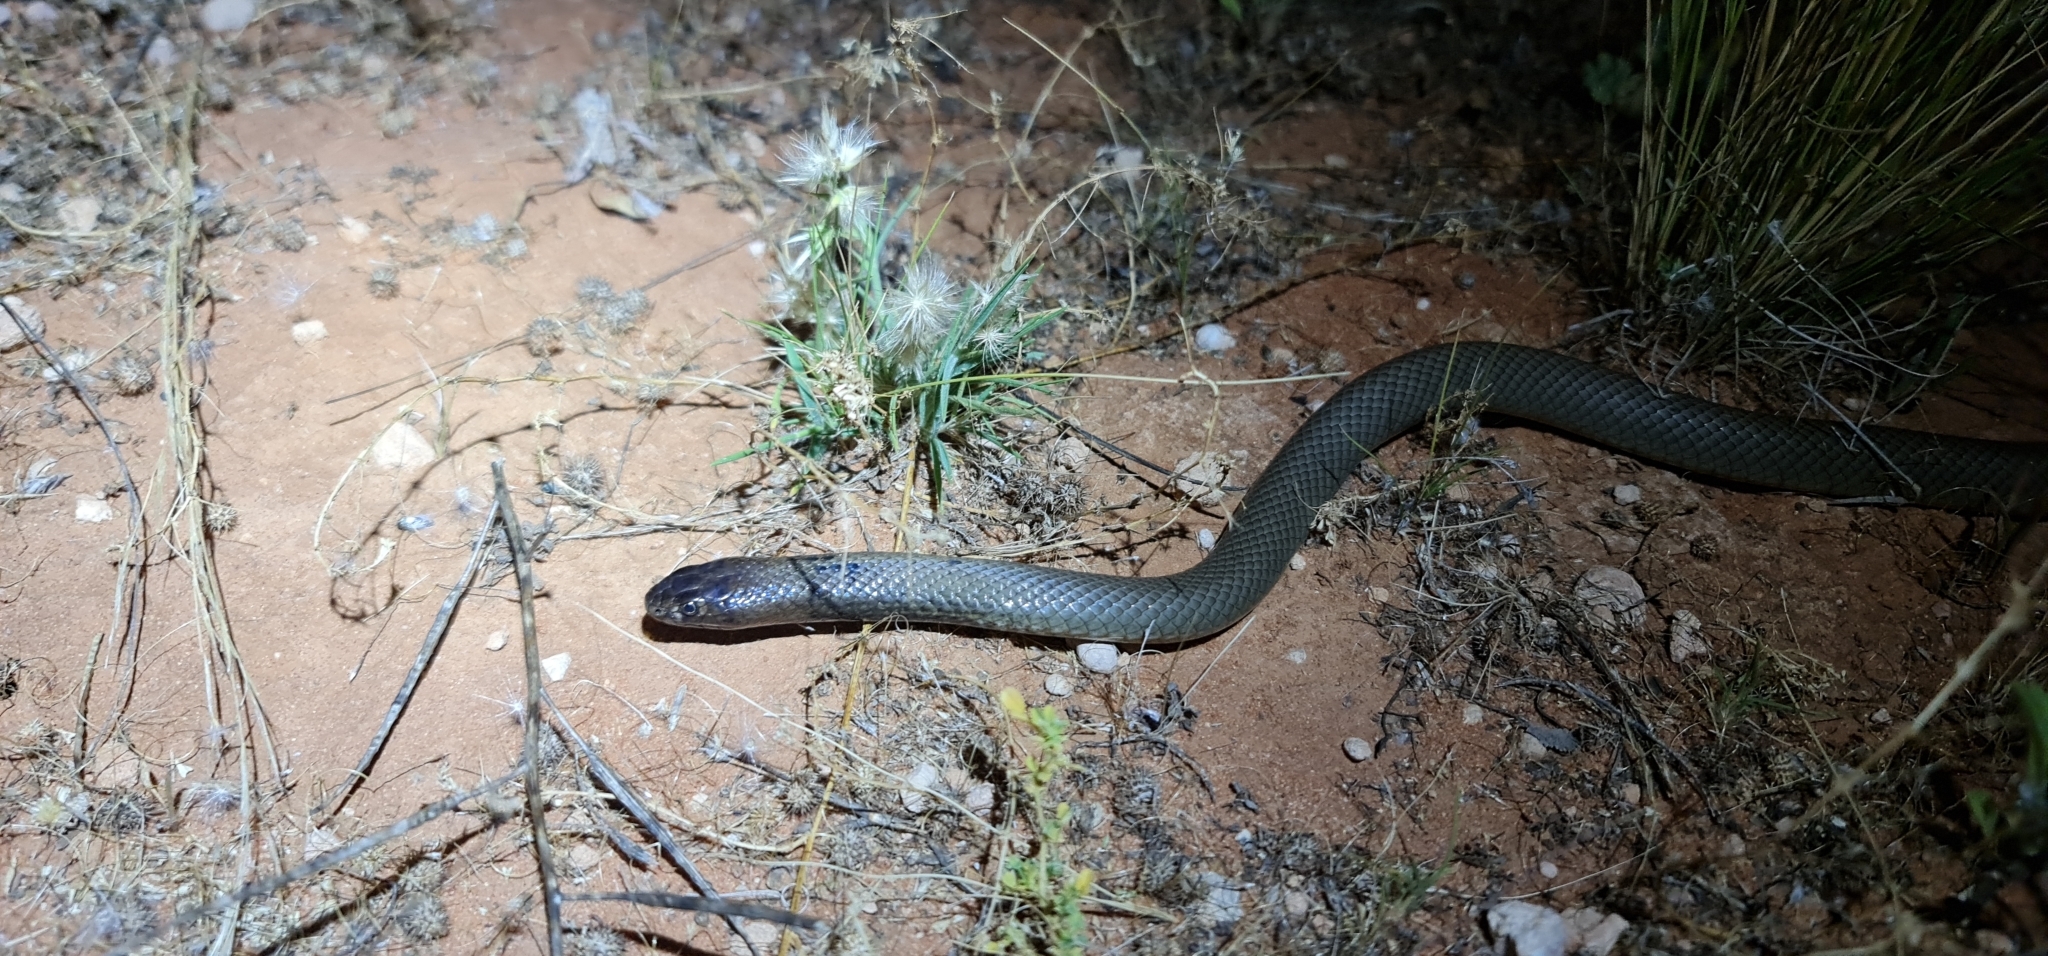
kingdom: Animalia
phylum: Chordata
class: Squamata
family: Elapidae
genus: Pseudonaja
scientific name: Pseudonaja aspidorhyncha
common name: Strap-snouted brown snake
